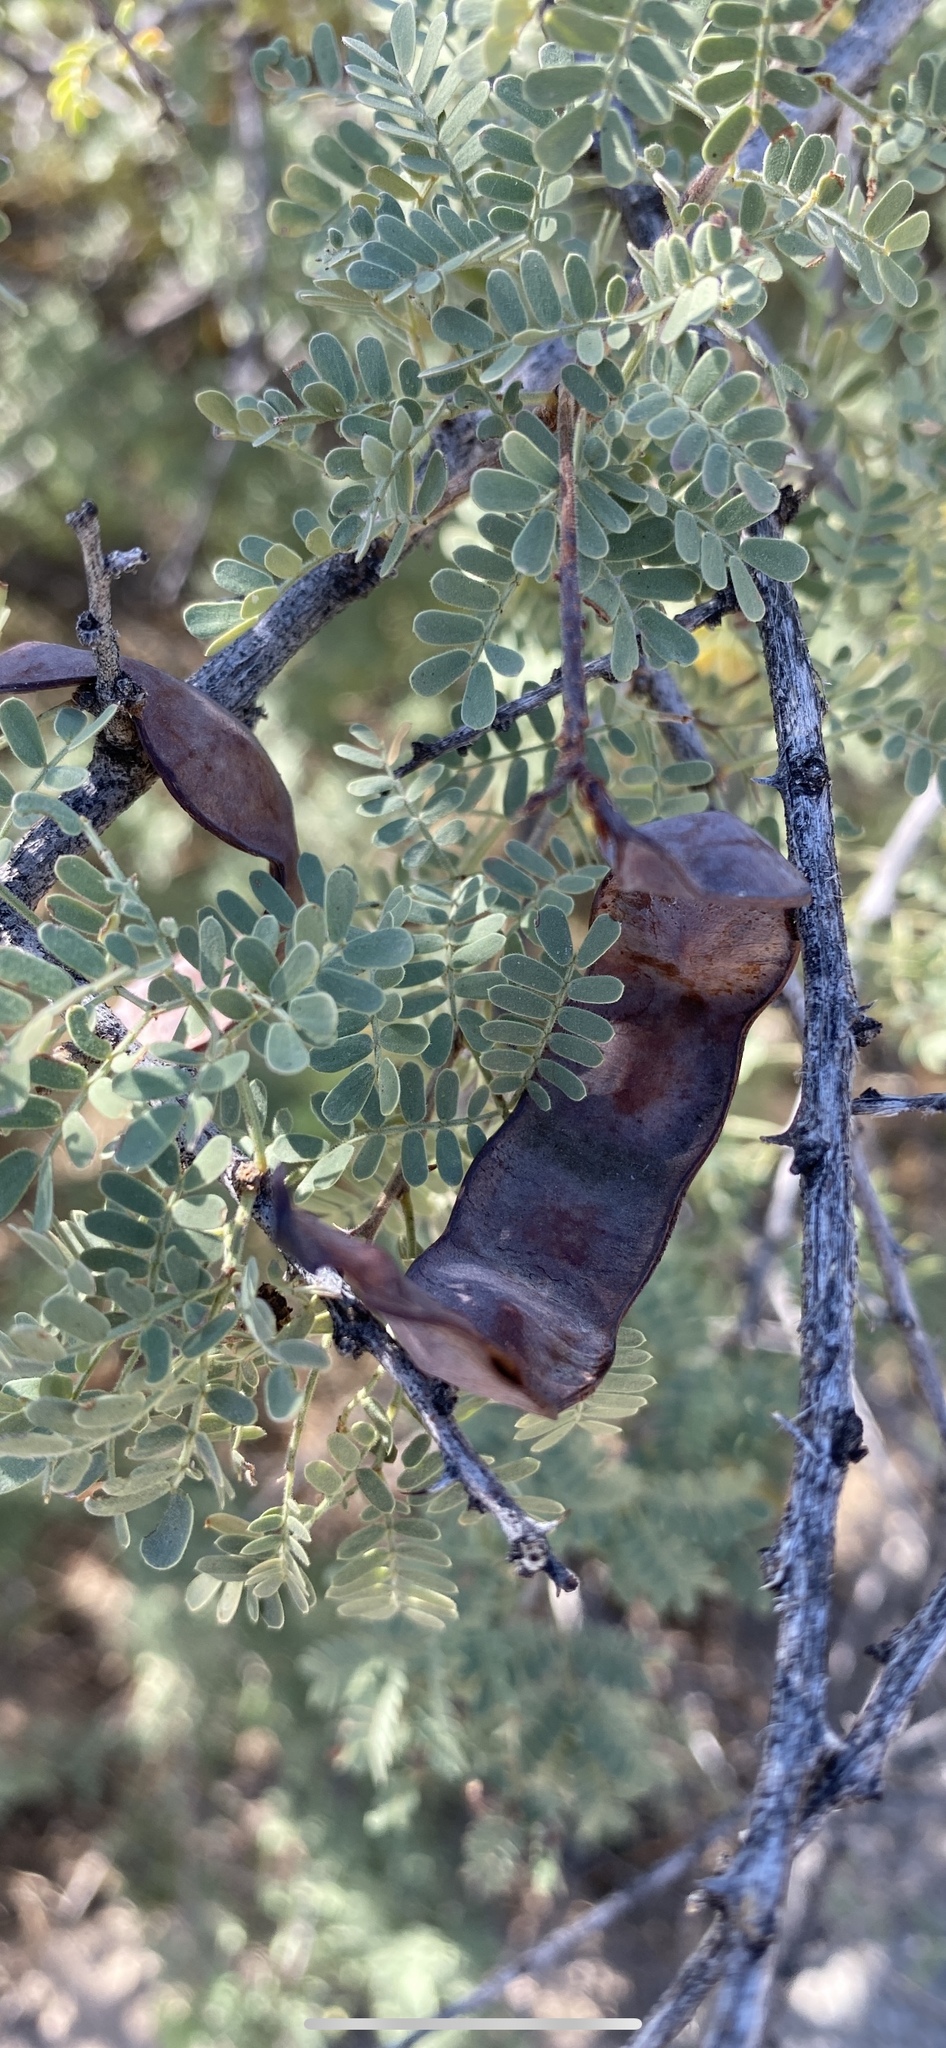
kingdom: Plantae
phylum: Tracheophyta
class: Magnoliopsida
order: Fabales
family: Fabaceae
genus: Senegalia
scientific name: Senegalia greggii
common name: Texas-mimosa
